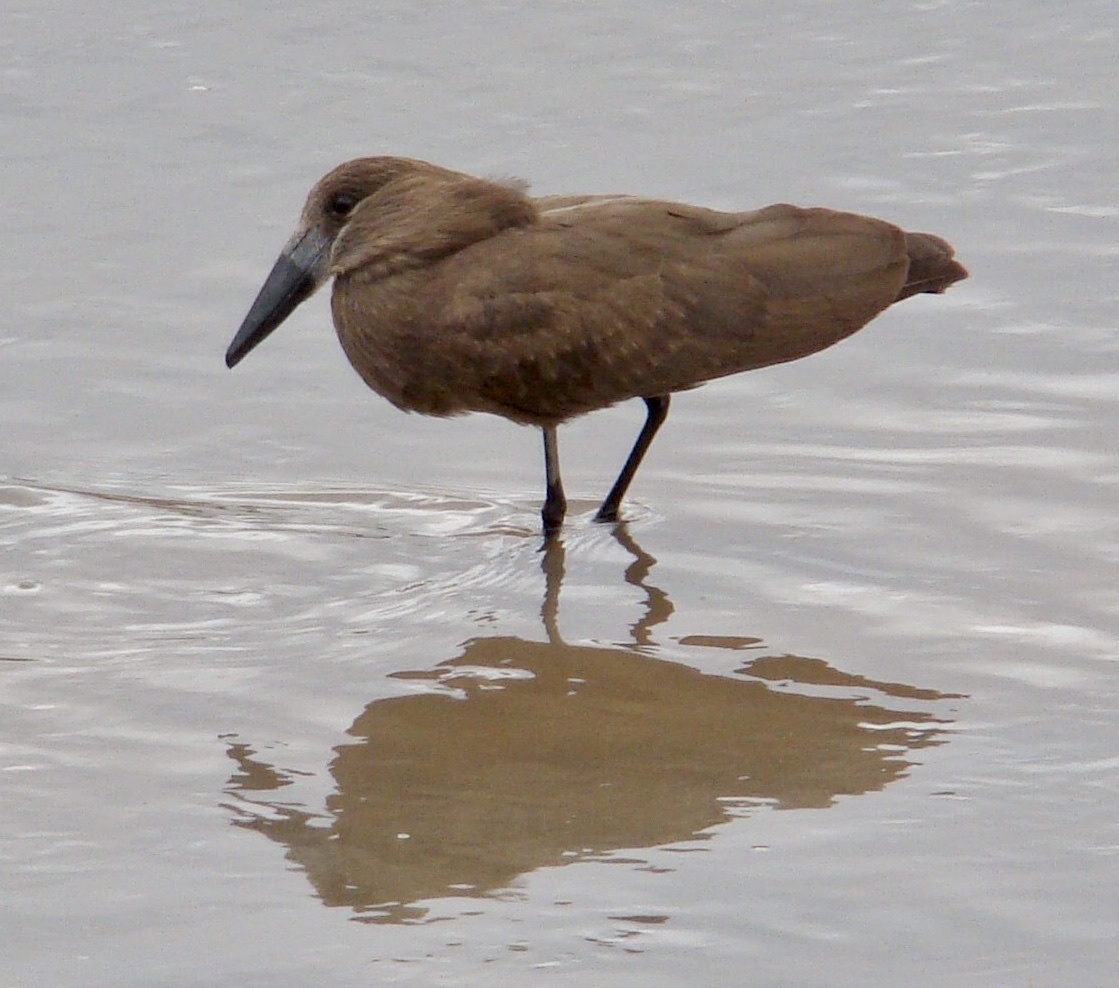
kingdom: Animalia
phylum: Chordata
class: Aves
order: Pelecaniformes
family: Scopidae
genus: Scopus
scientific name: Scopus umbretta
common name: Hamerkop
